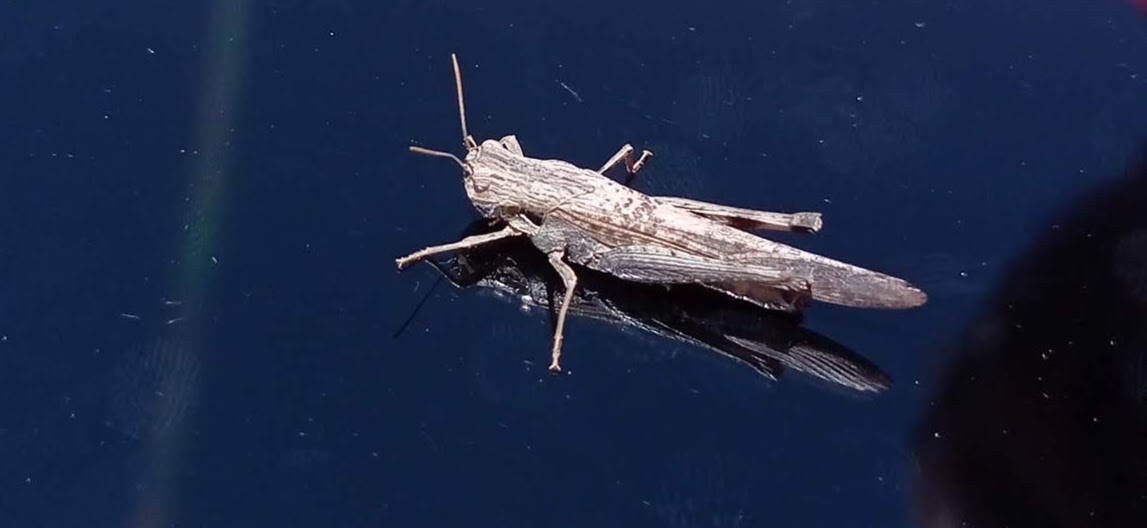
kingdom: Animalia
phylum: Arthropoda
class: Insecta
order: Orthoptera
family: Acrididae
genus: Morphacris
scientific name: Morphacris fasciata
